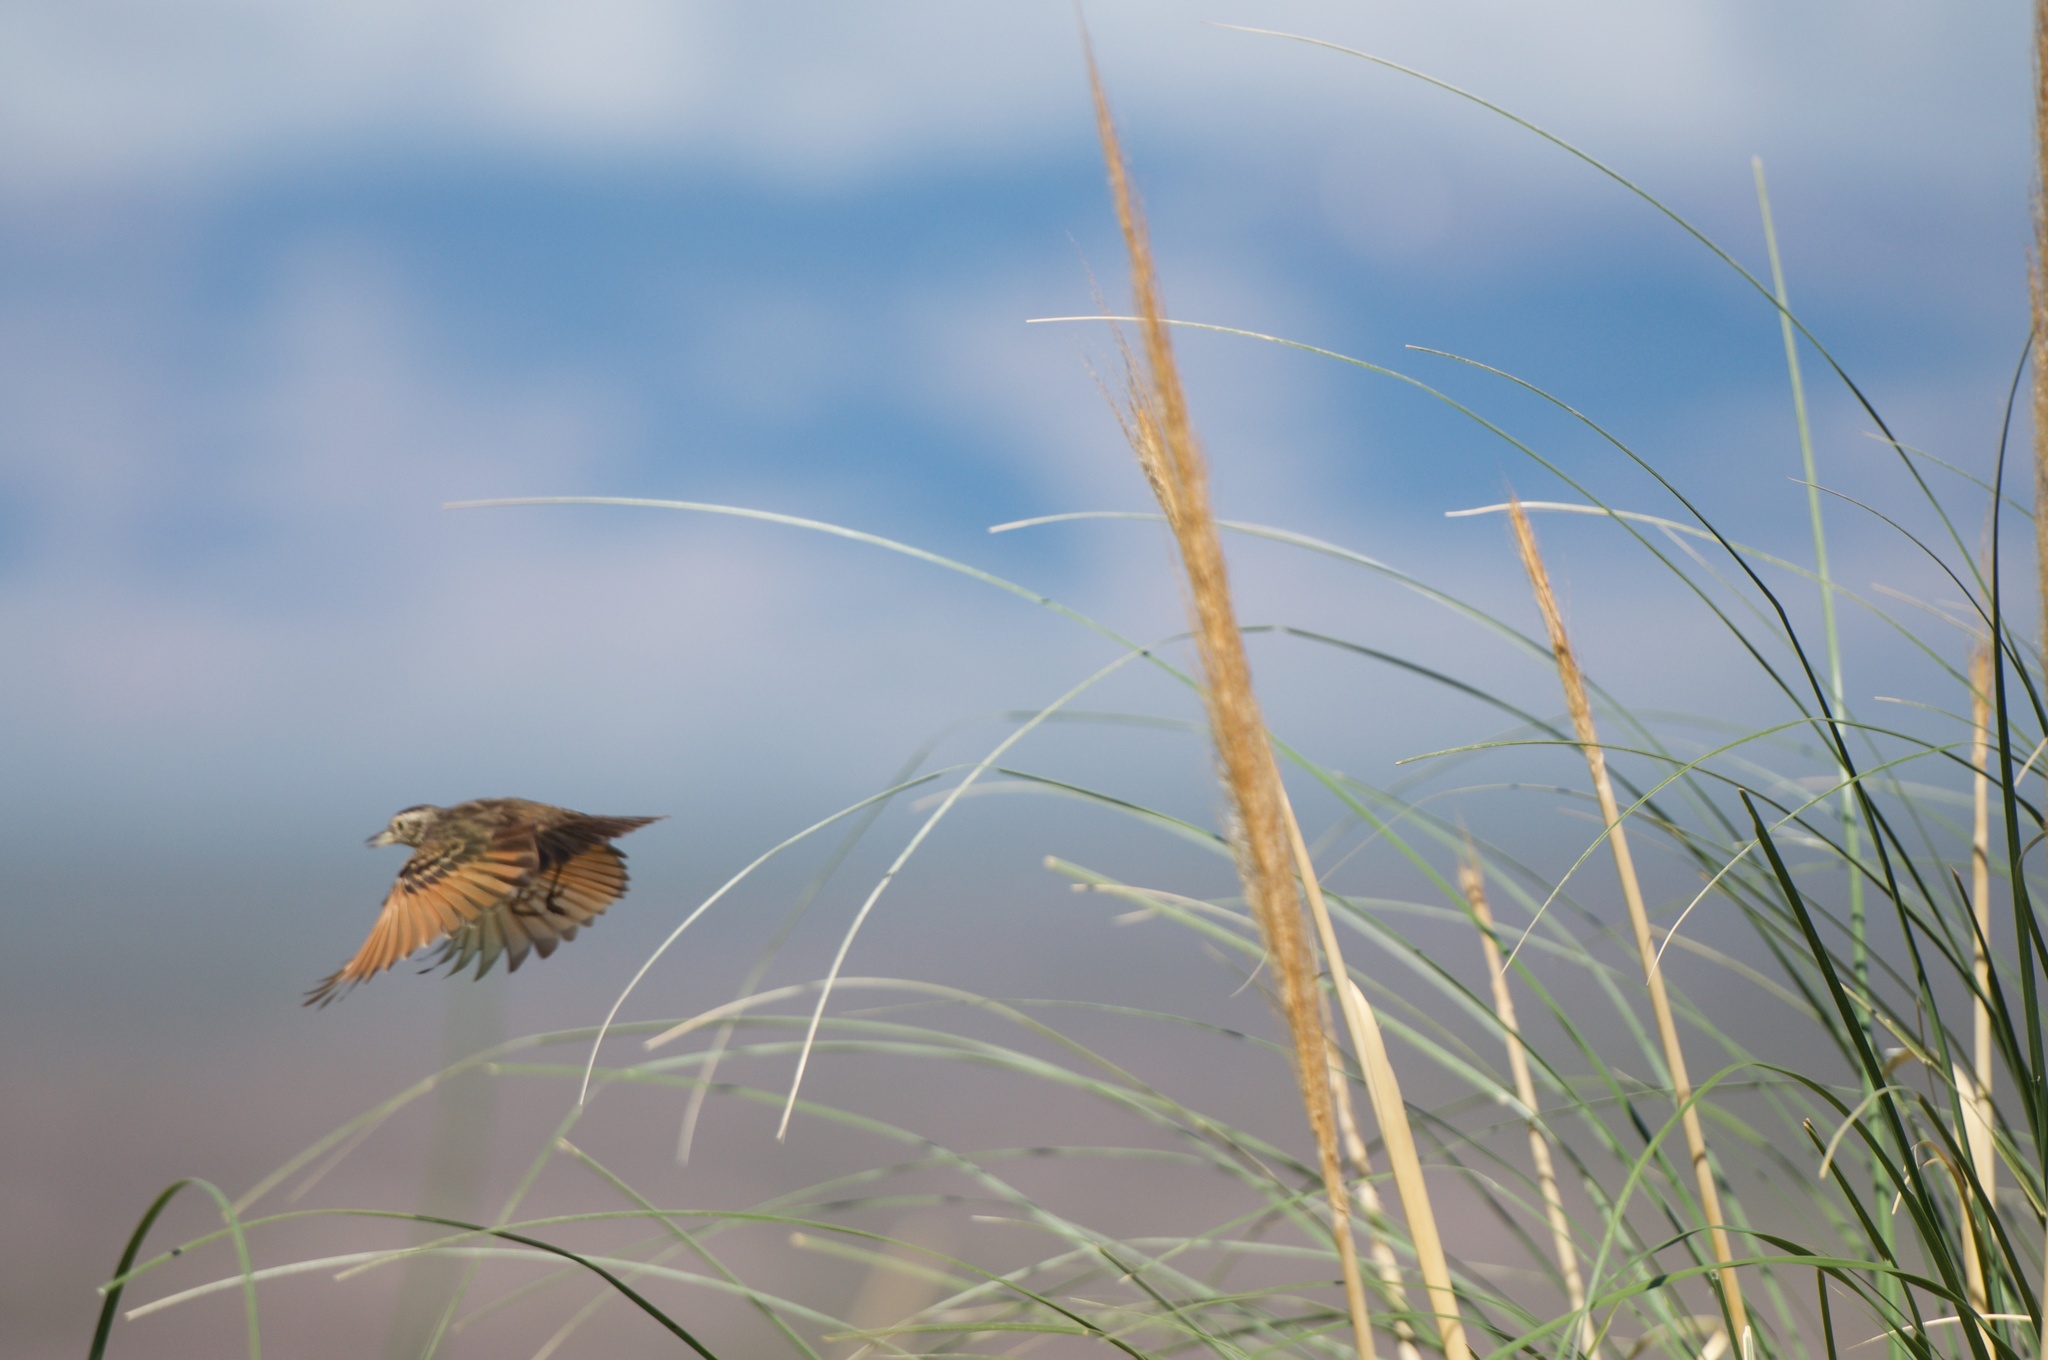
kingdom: Animalia
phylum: Chordata
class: Aves
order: Passeriformes
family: Tyrannidae
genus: Hymenops
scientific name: Hymenops perspicillatus
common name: Spectacled tyrant
